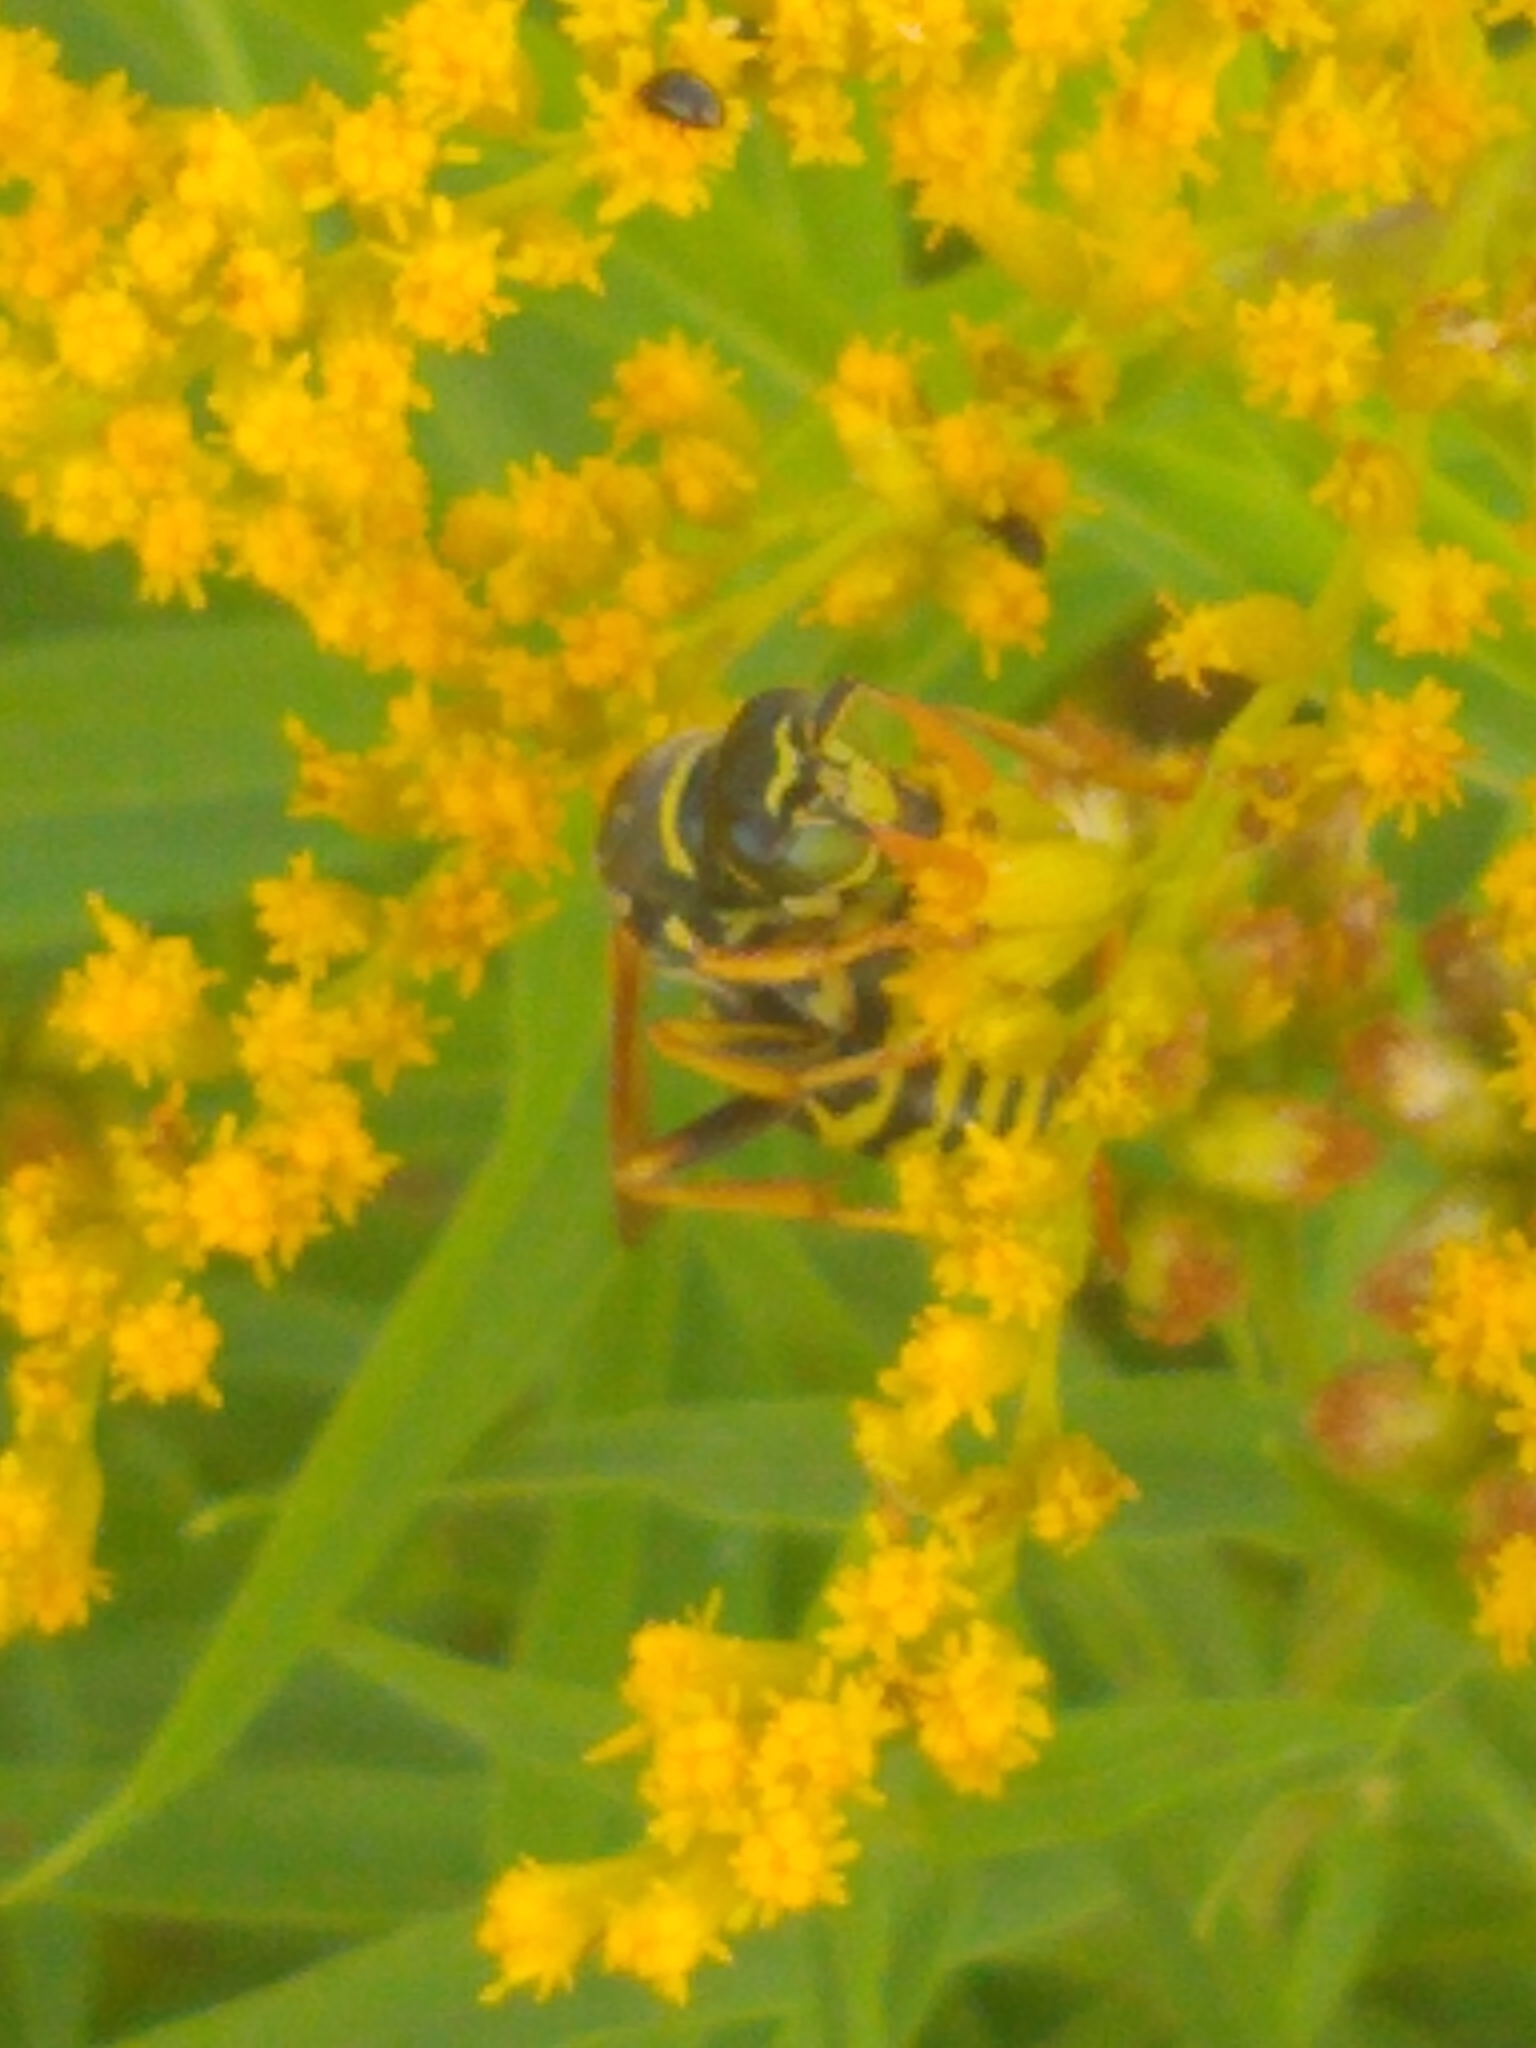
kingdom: Animalia
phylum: Arthropoda
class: Insecta
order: Hymenoptera
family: Eumenidae
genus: Polistes
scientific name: Polistes dominula
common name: Paper wasp
